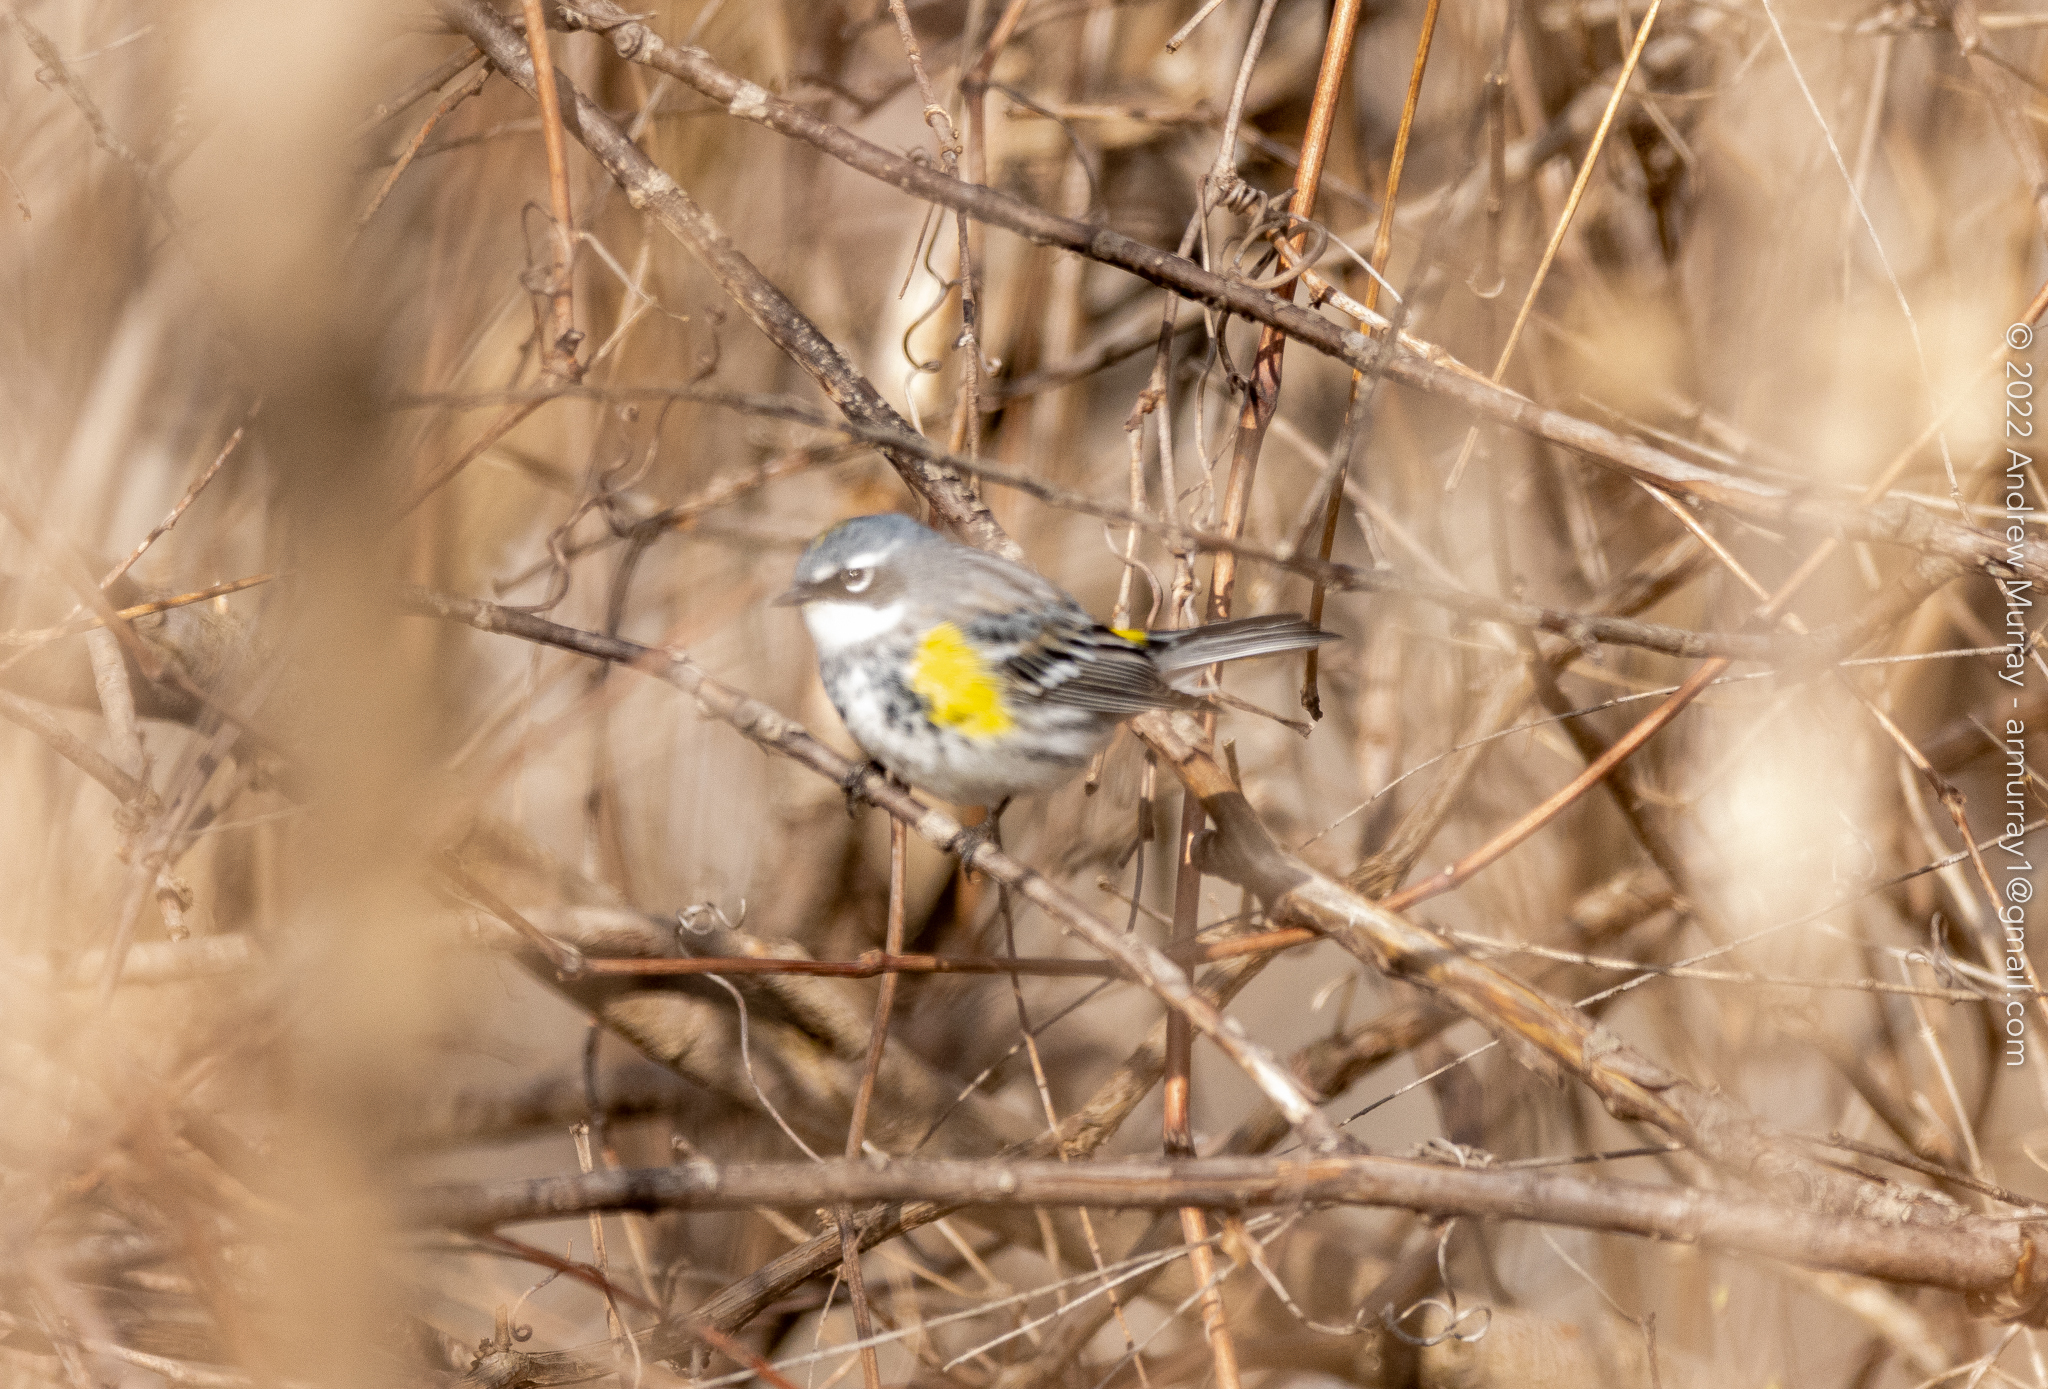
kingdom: Animalia
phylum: Chordata
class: Aves
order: Passeriformes
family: Parulidae
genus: Setophaga
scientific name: Setophaga coronata
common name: Myrtle warbler
